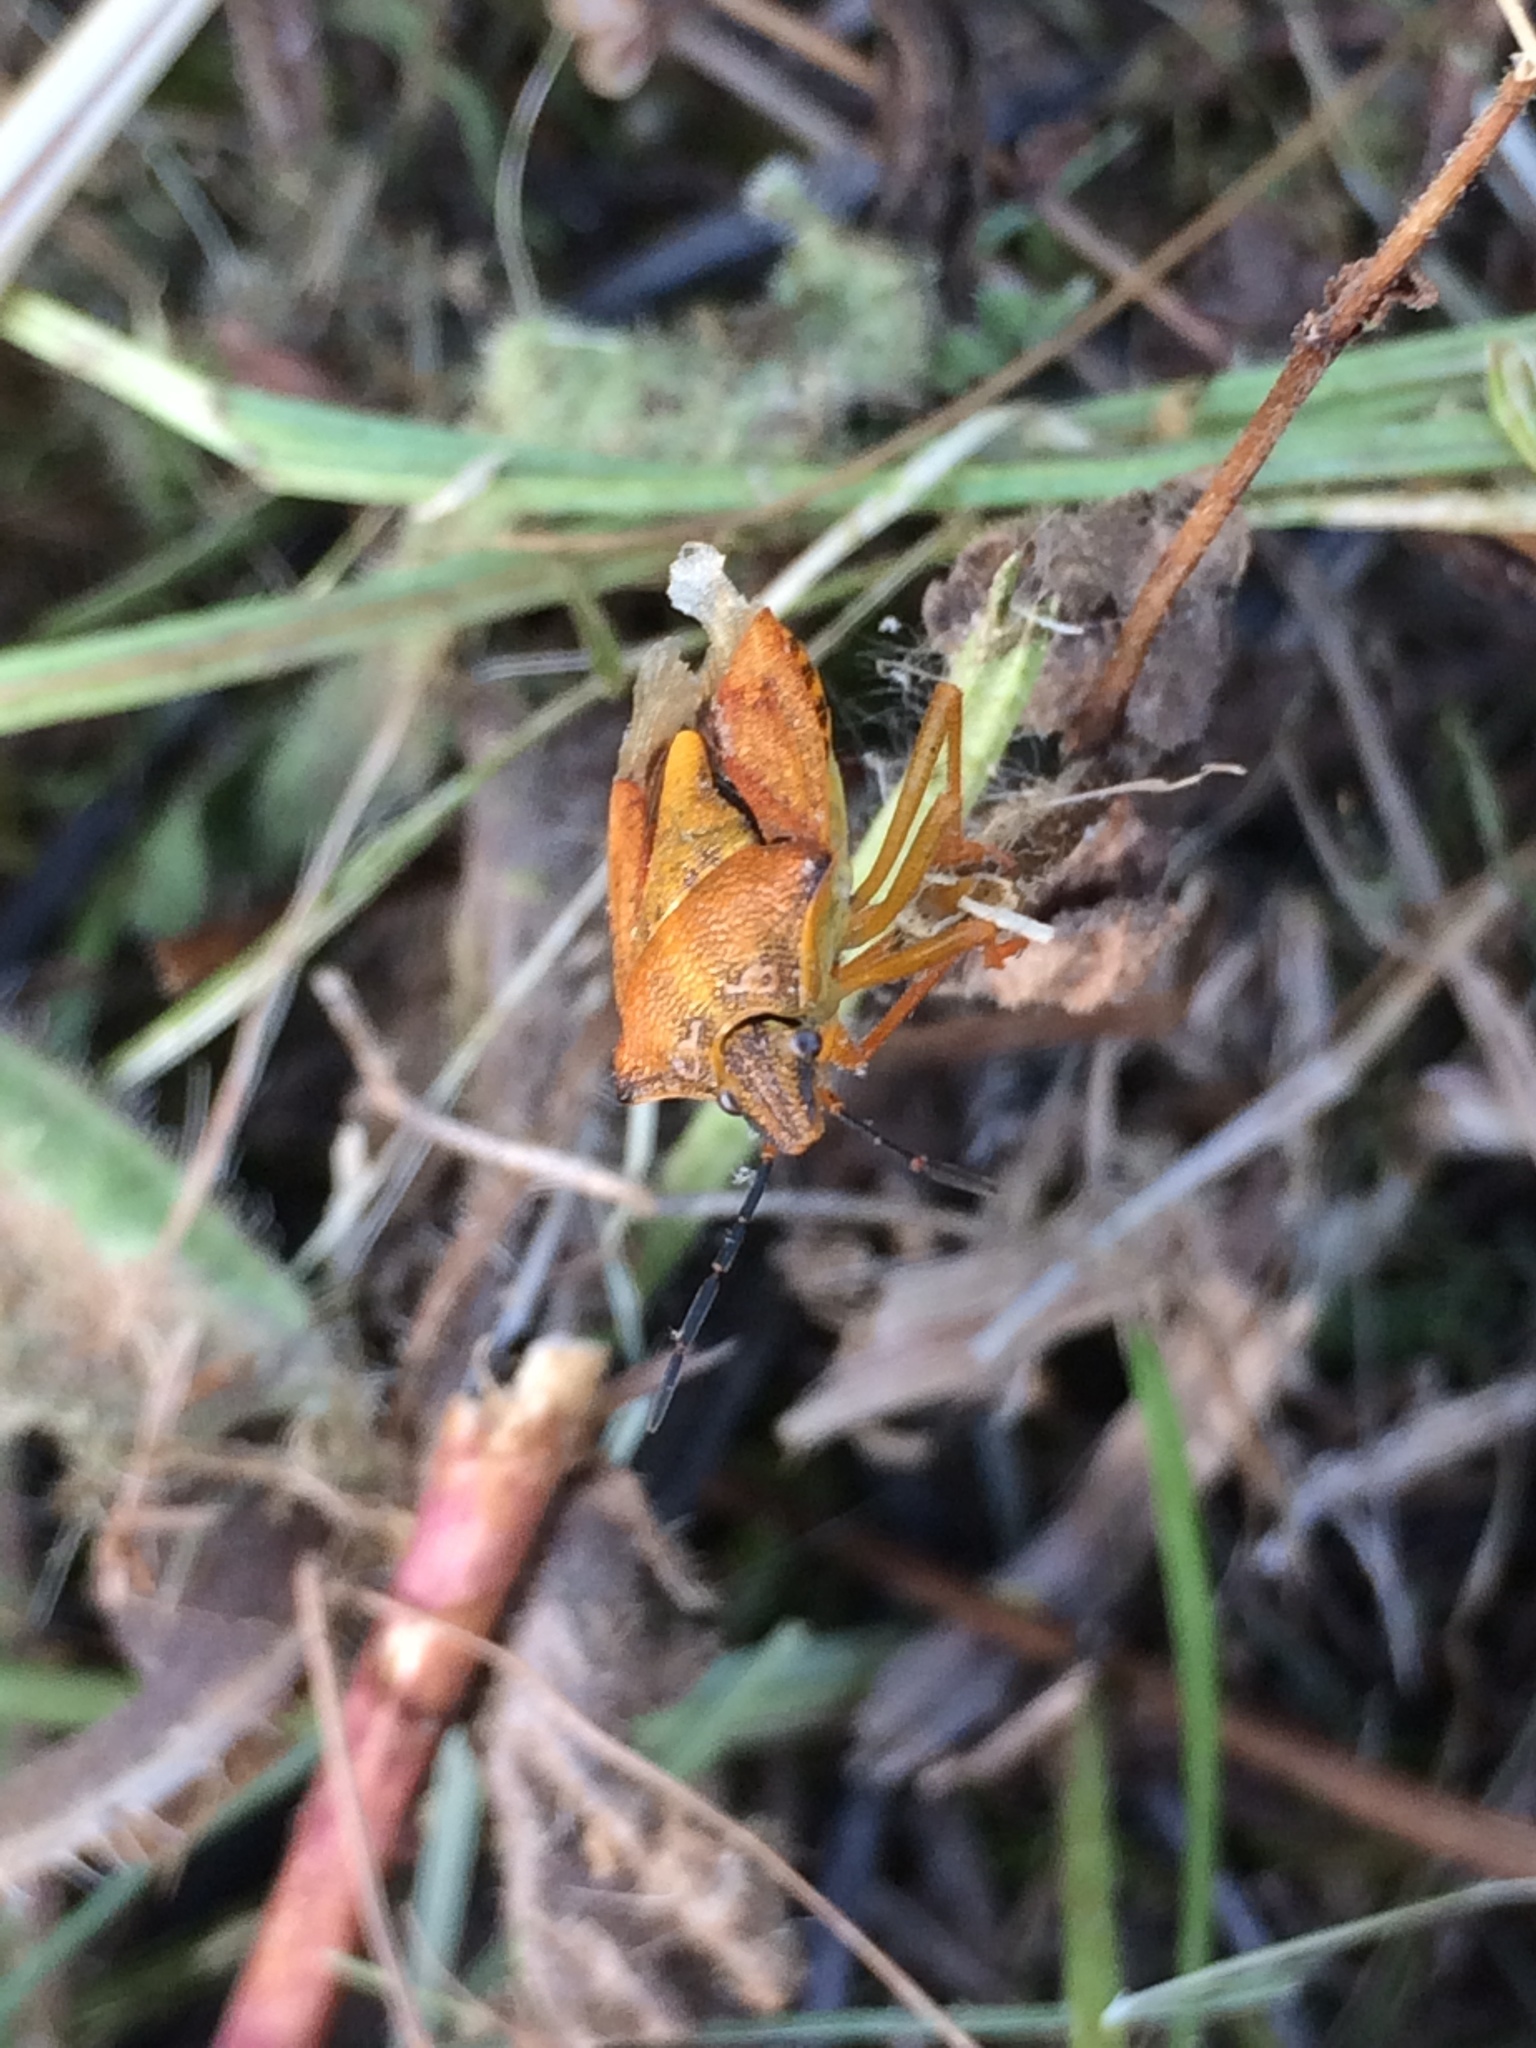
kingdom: Animalia
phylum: Arthropoda
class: Insecta
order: Hemiptera
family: Pentatomidae
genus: Carpocoris
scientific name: Carpocoris purpureipennis
